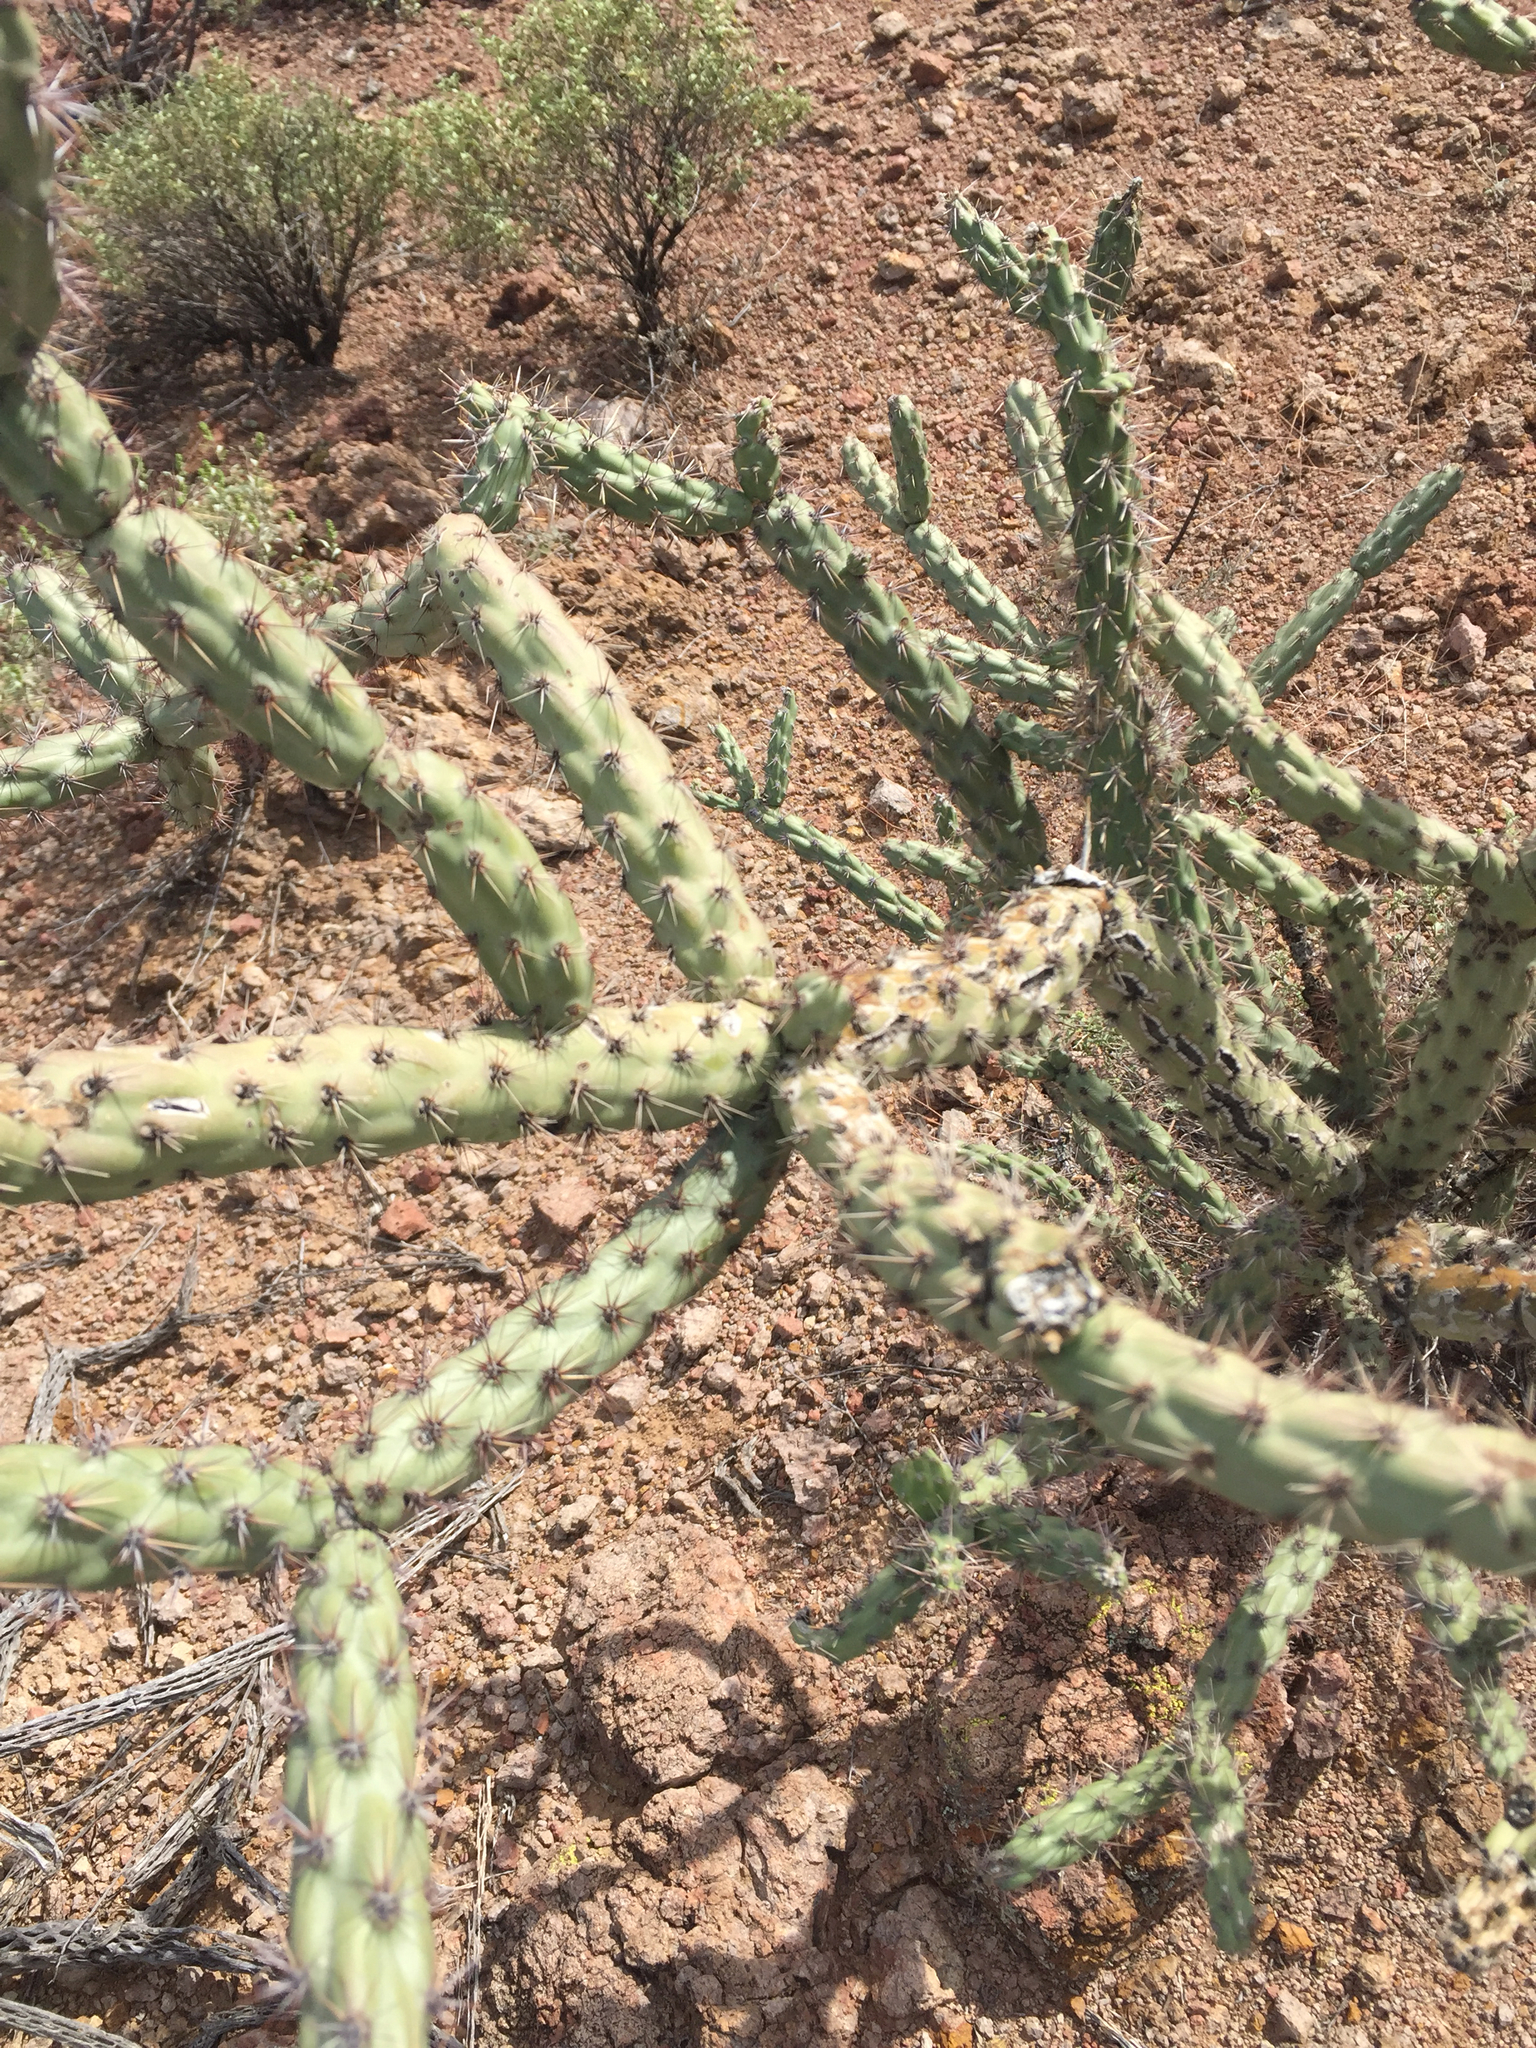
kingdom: Plantae
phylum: Tracheophyta
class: Magnoliopsida
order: Caryophyllales
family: Cactaceae
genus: Cylindropuntia
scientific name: Cylindropuntia acanthocarpa
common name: Buckhorn cholla
